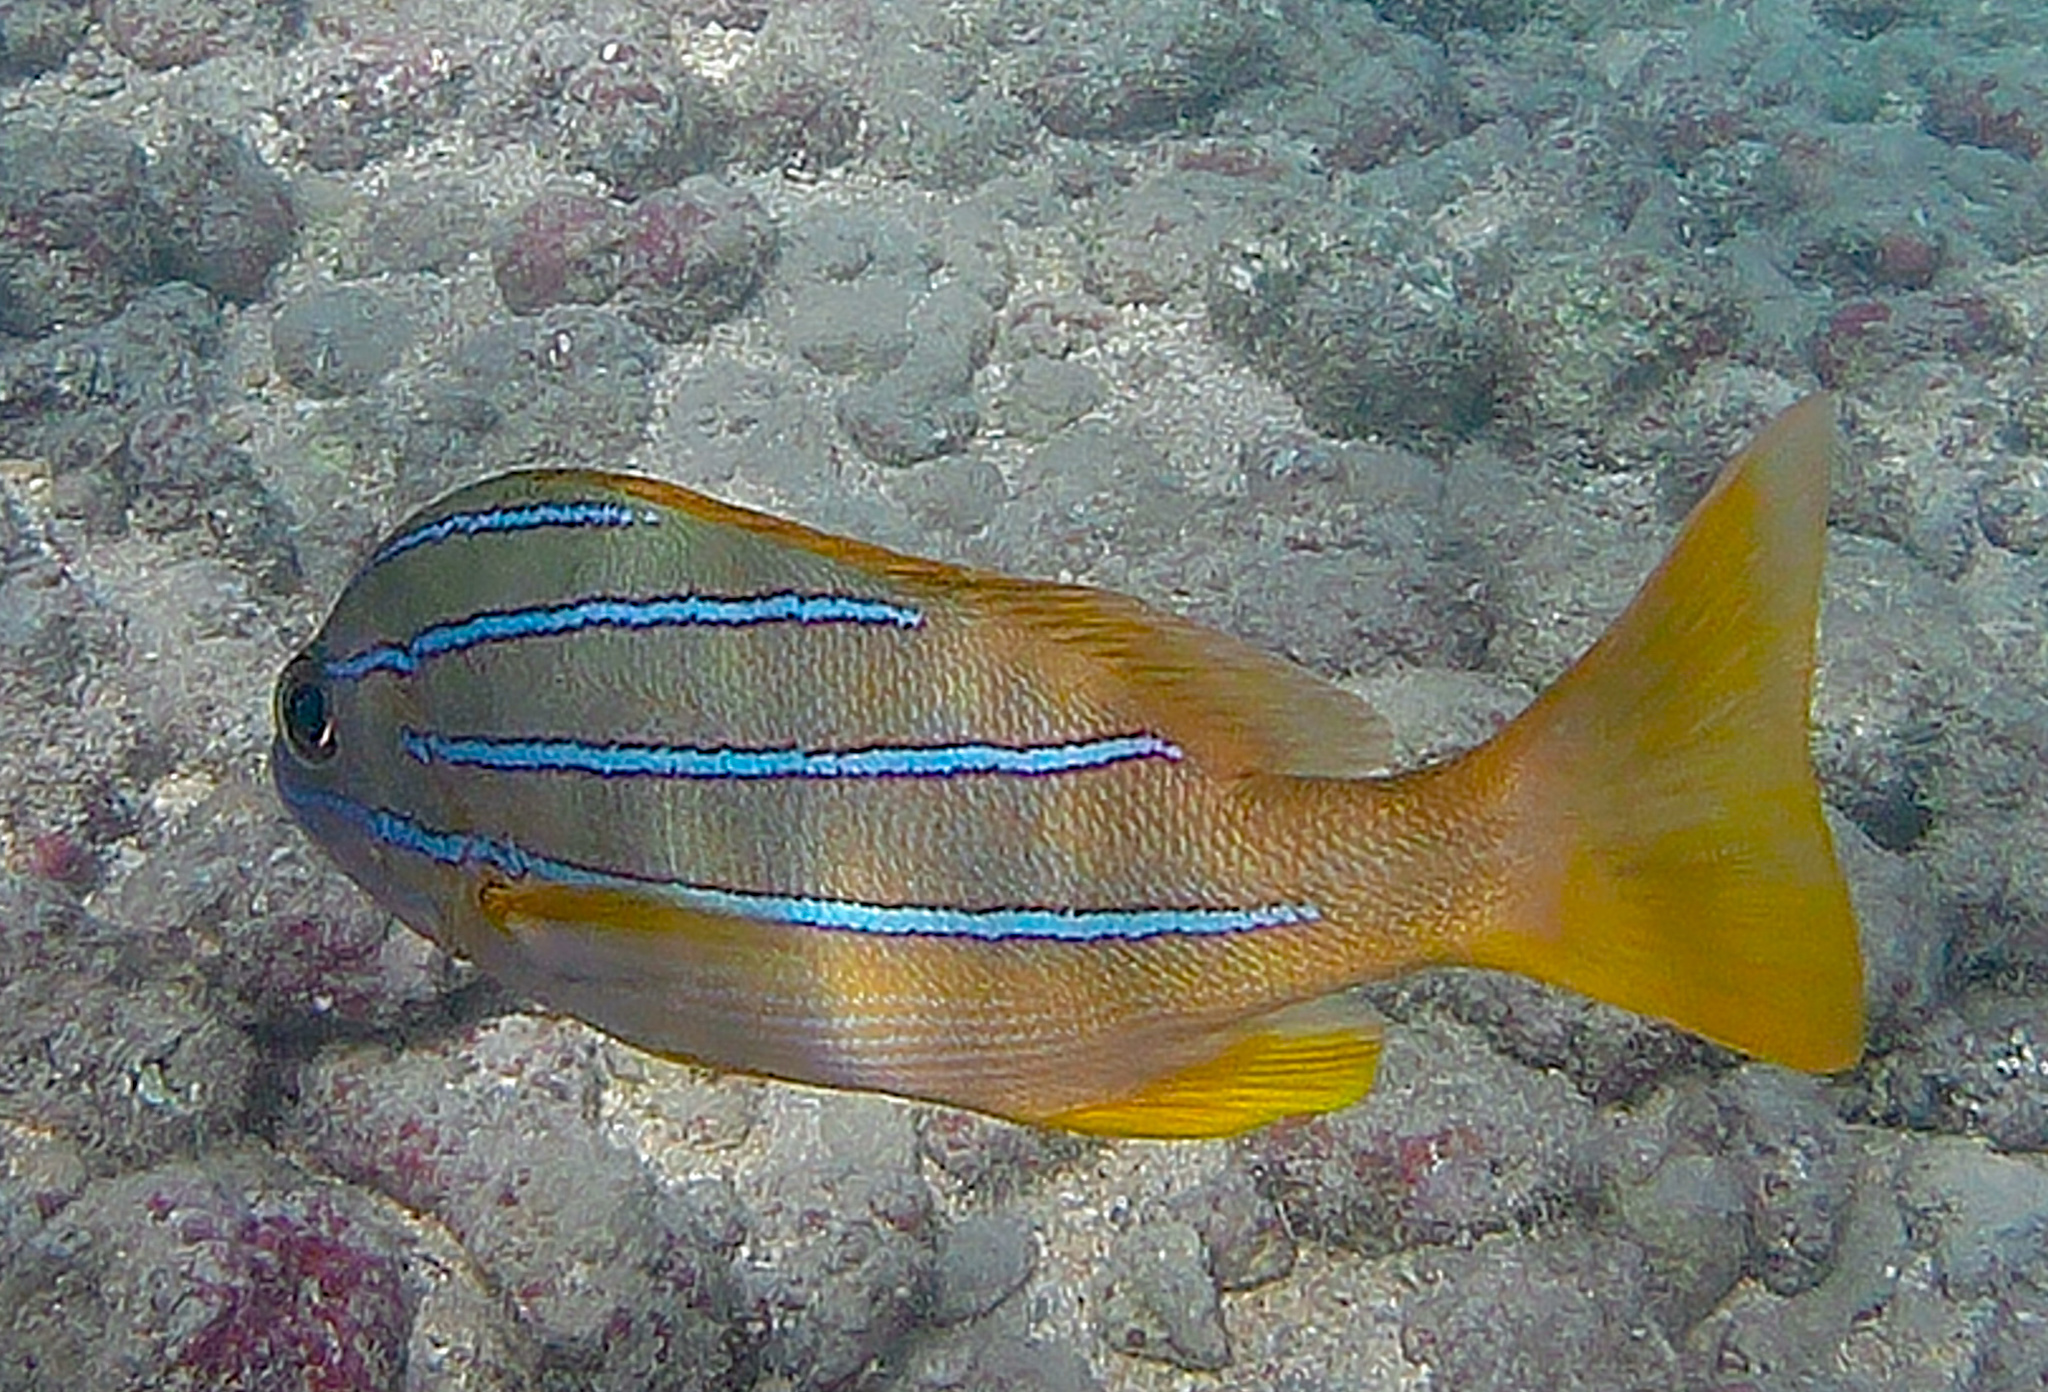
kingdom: Animalia
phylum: Chordata
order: Perciformes
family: Lutjanidae
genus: Lutjanus
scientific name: Lutjanus kasmira
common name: Common bluestripe snapper
